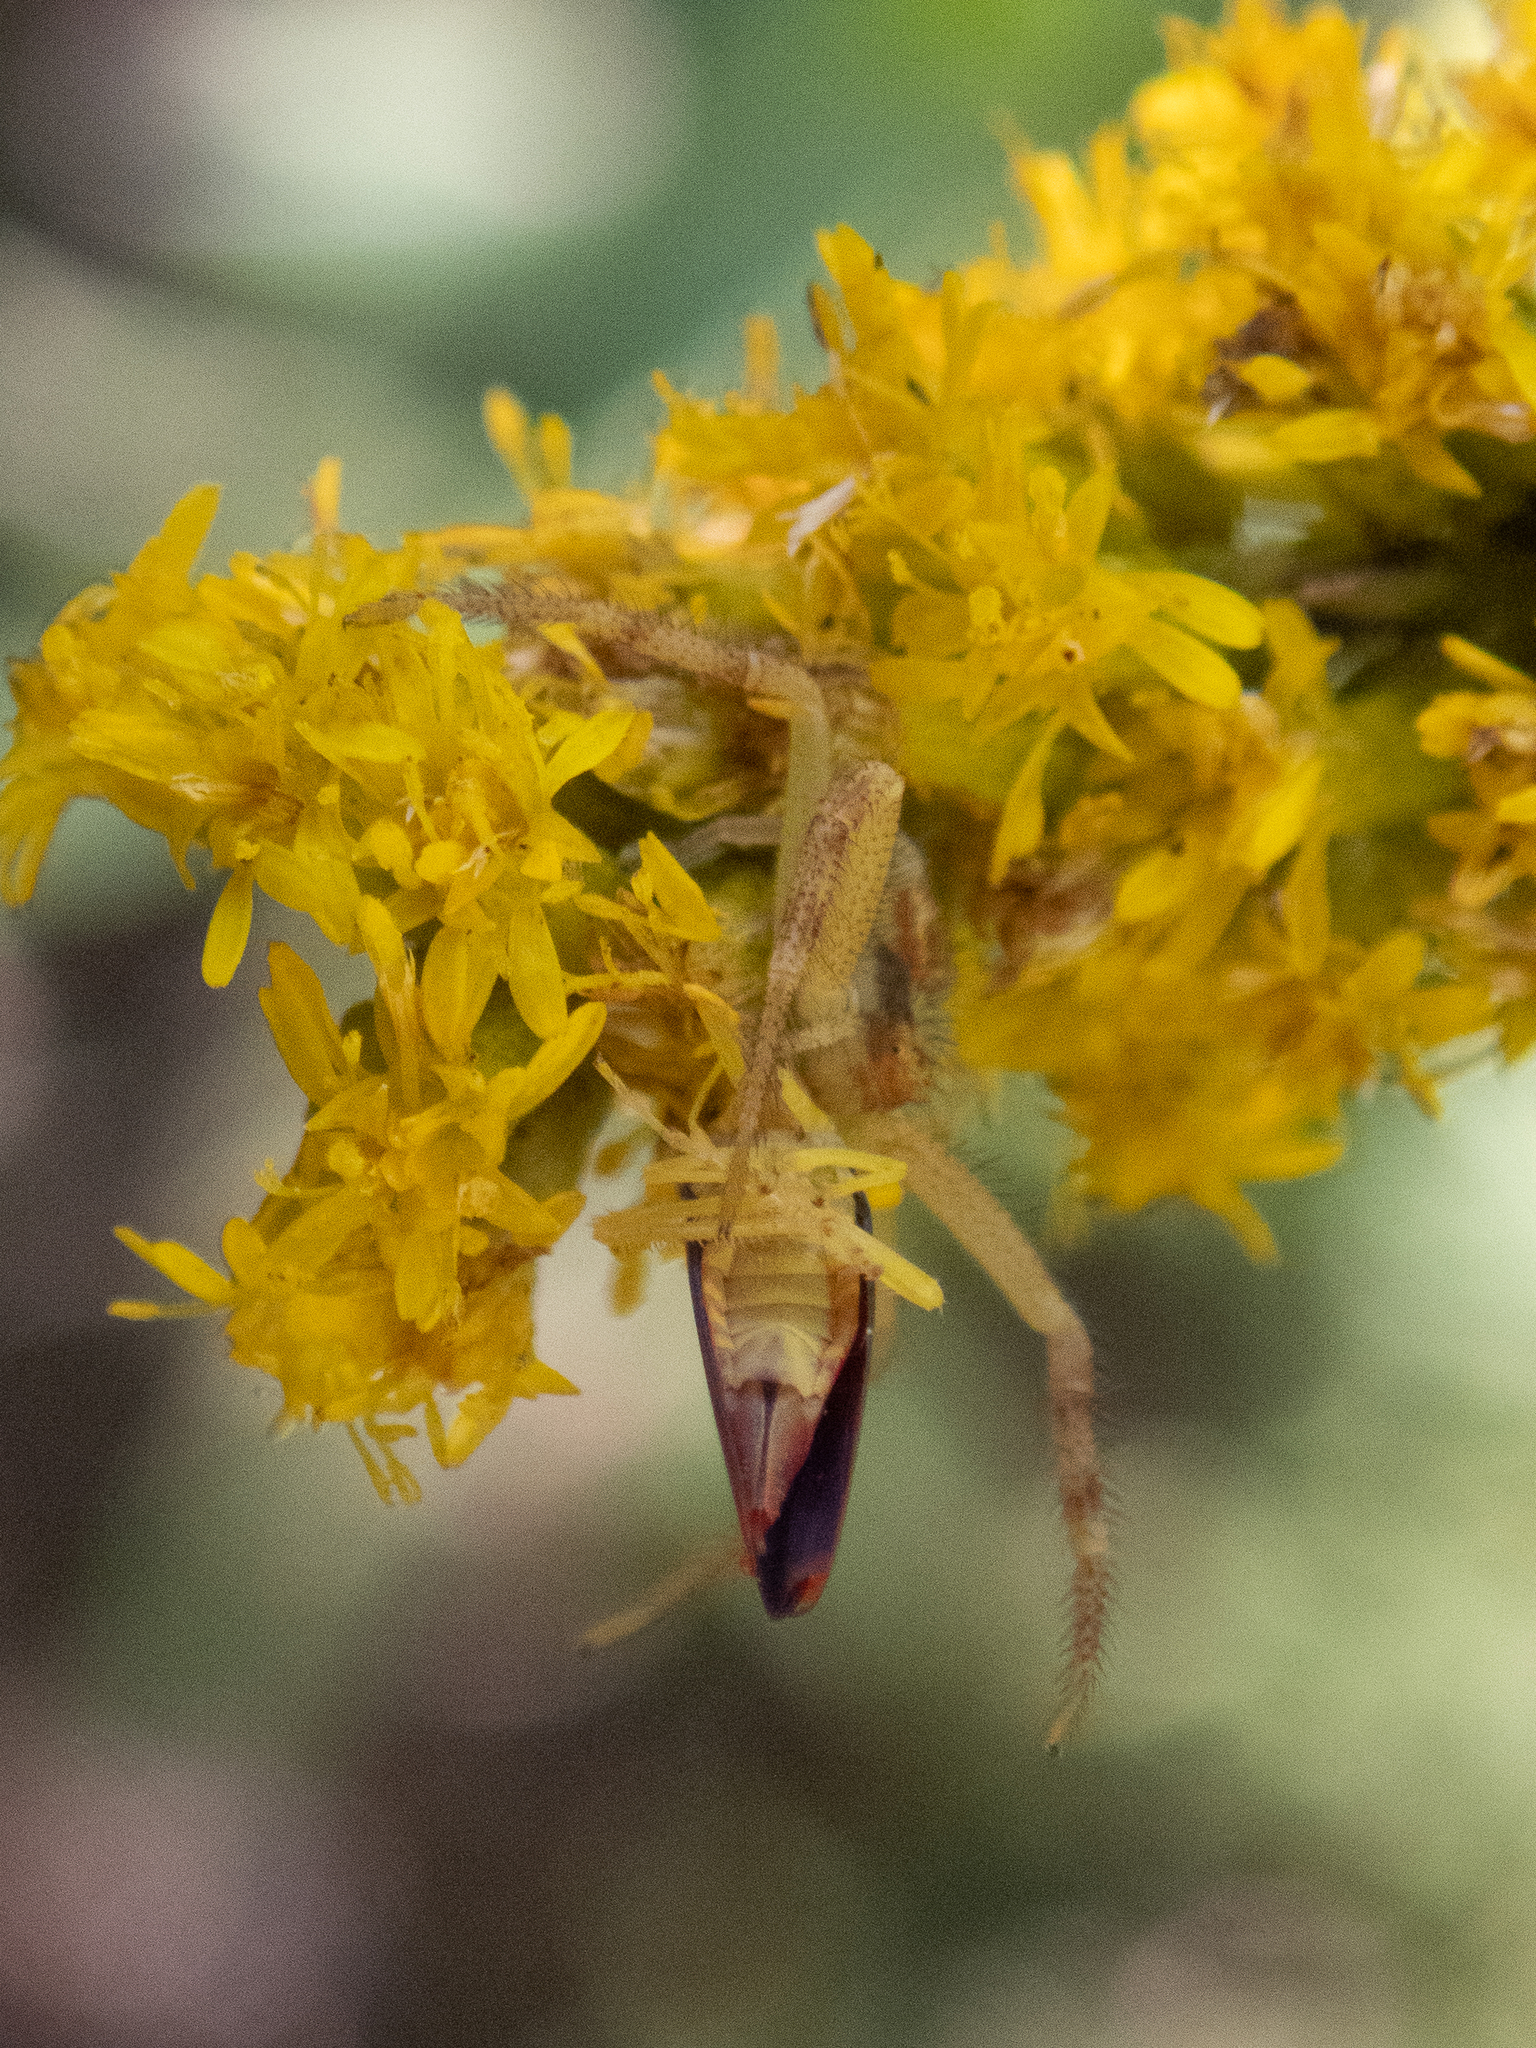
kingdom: Animalia
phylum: Arthropoda
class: Insecta
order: Hemiptera
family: Cicadellidae
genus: Graphocephala
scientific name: Graphocephala coccinea
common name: Candy-striped leafhopper
